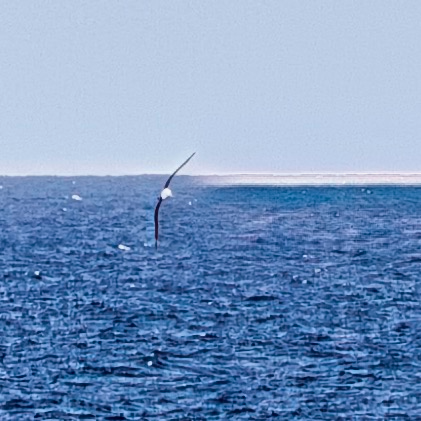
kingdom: Animalia
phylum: Chordata
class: Aves
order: Procellariiformes
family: Diomedeidae
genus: Thalassarche
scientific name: Thalassarche cauta
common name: Shy albatross
